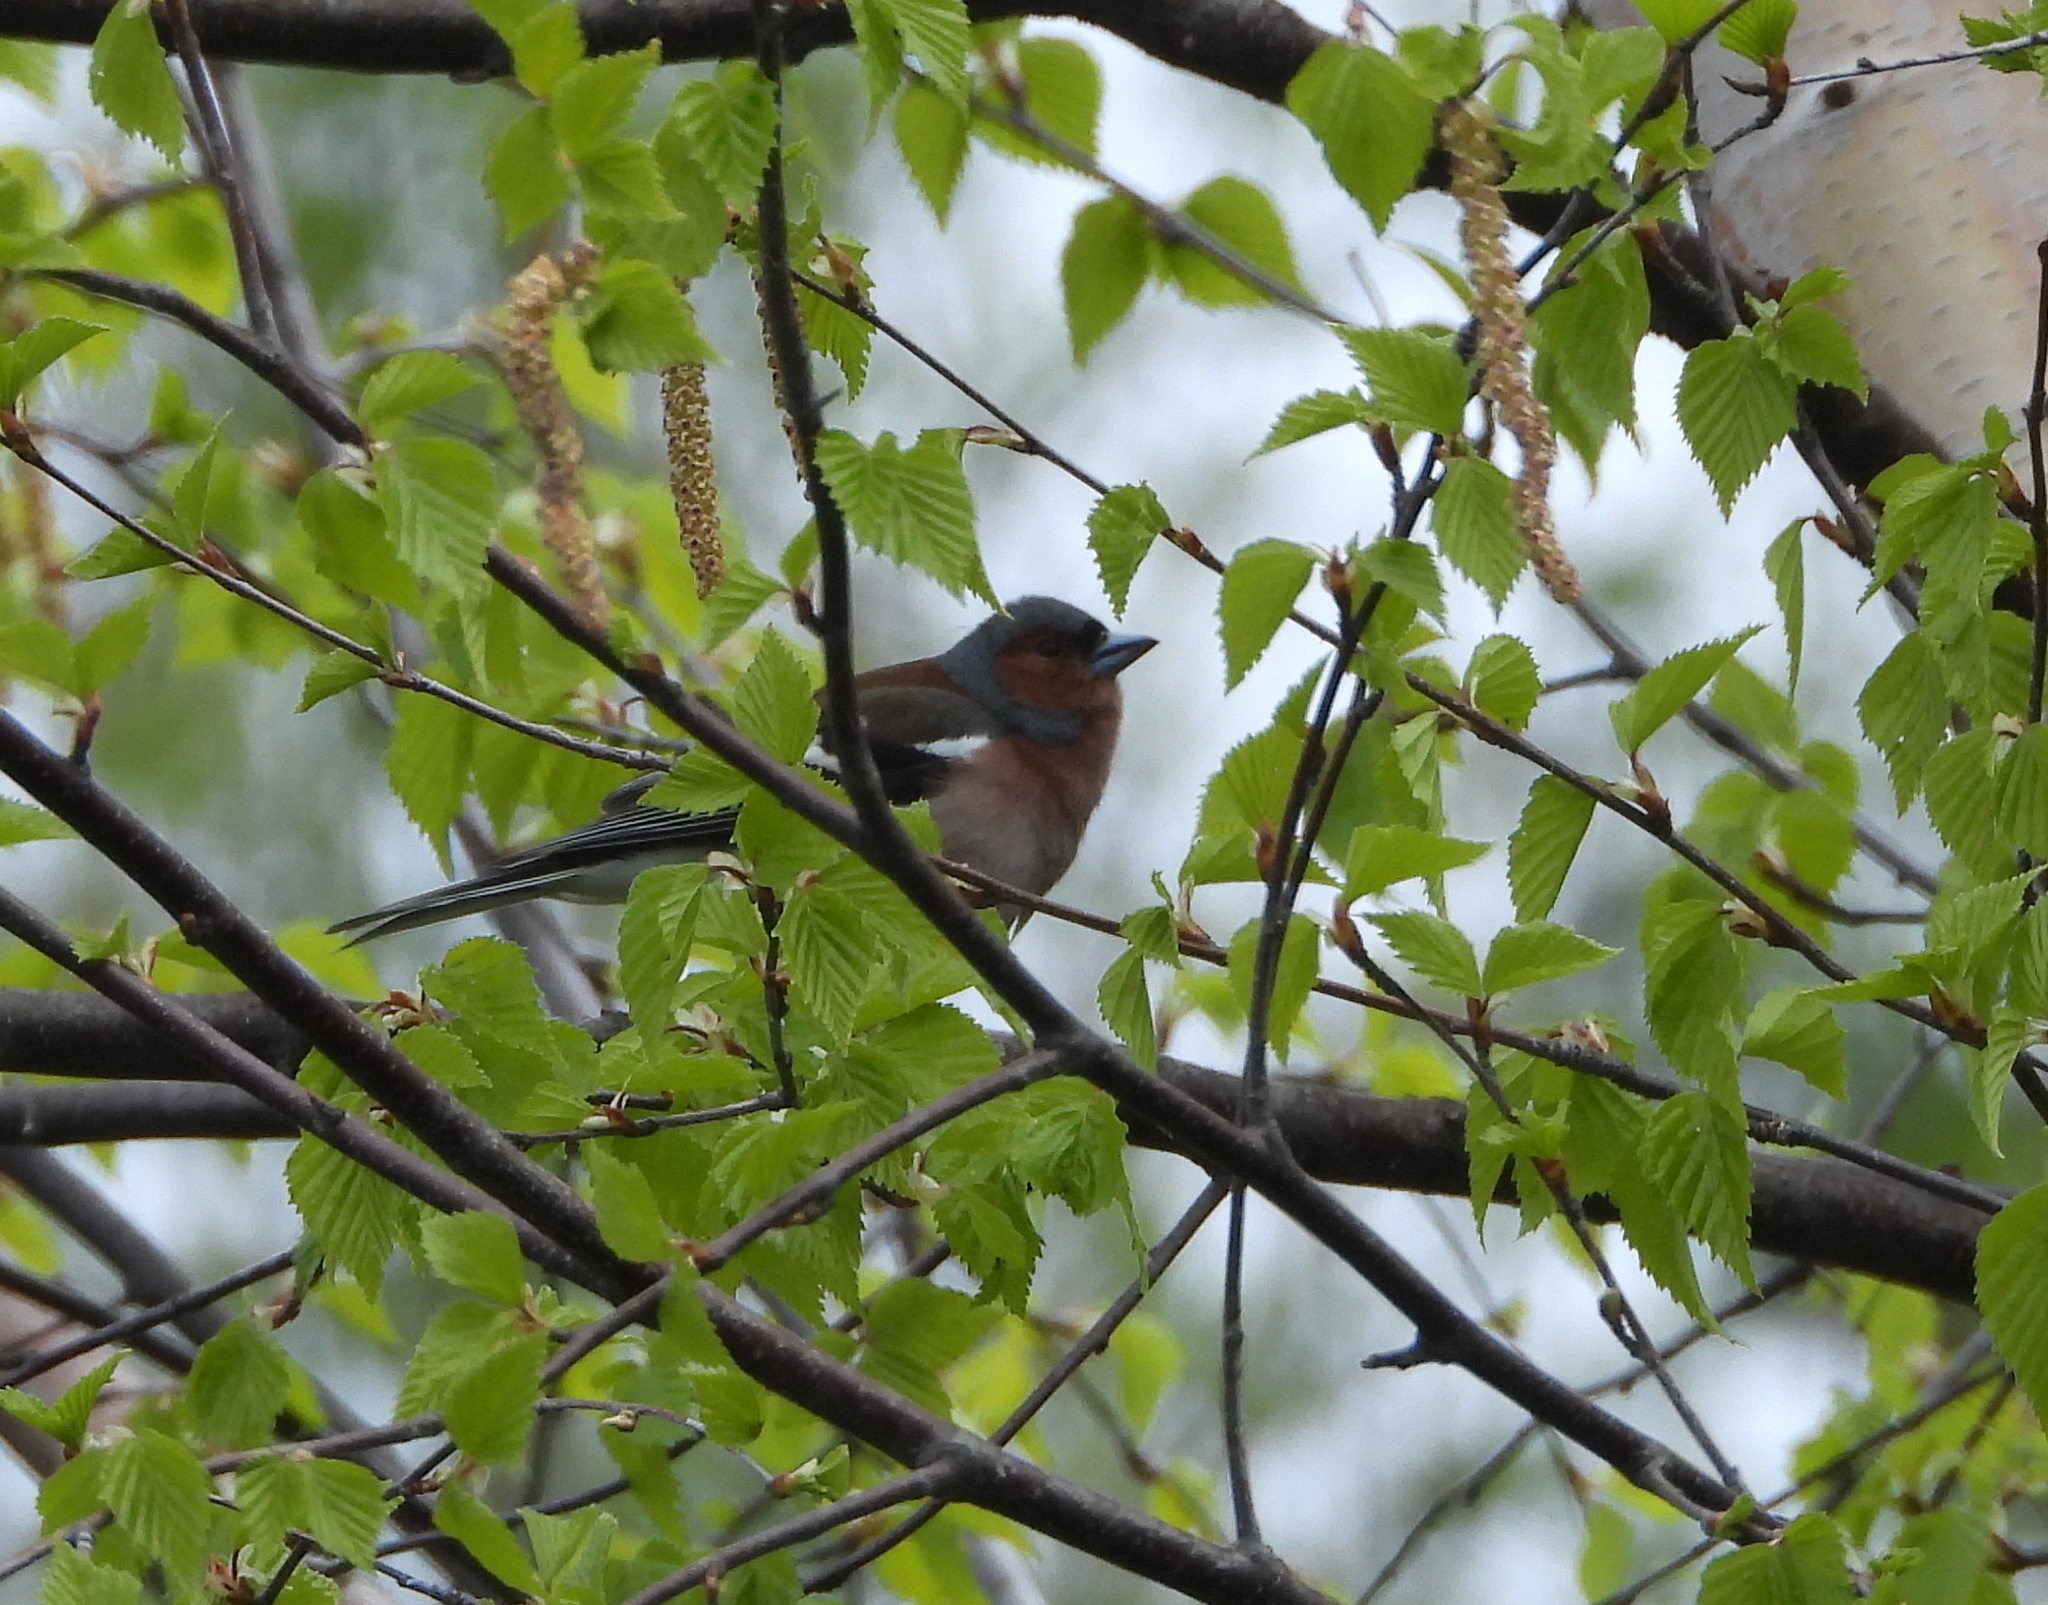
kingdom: Animalia
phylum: Chordata
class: Aves
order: Passeriformes
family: Fringillidae
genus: Fringilla
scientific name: Fringilla coelebs
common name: Common chaffinch
